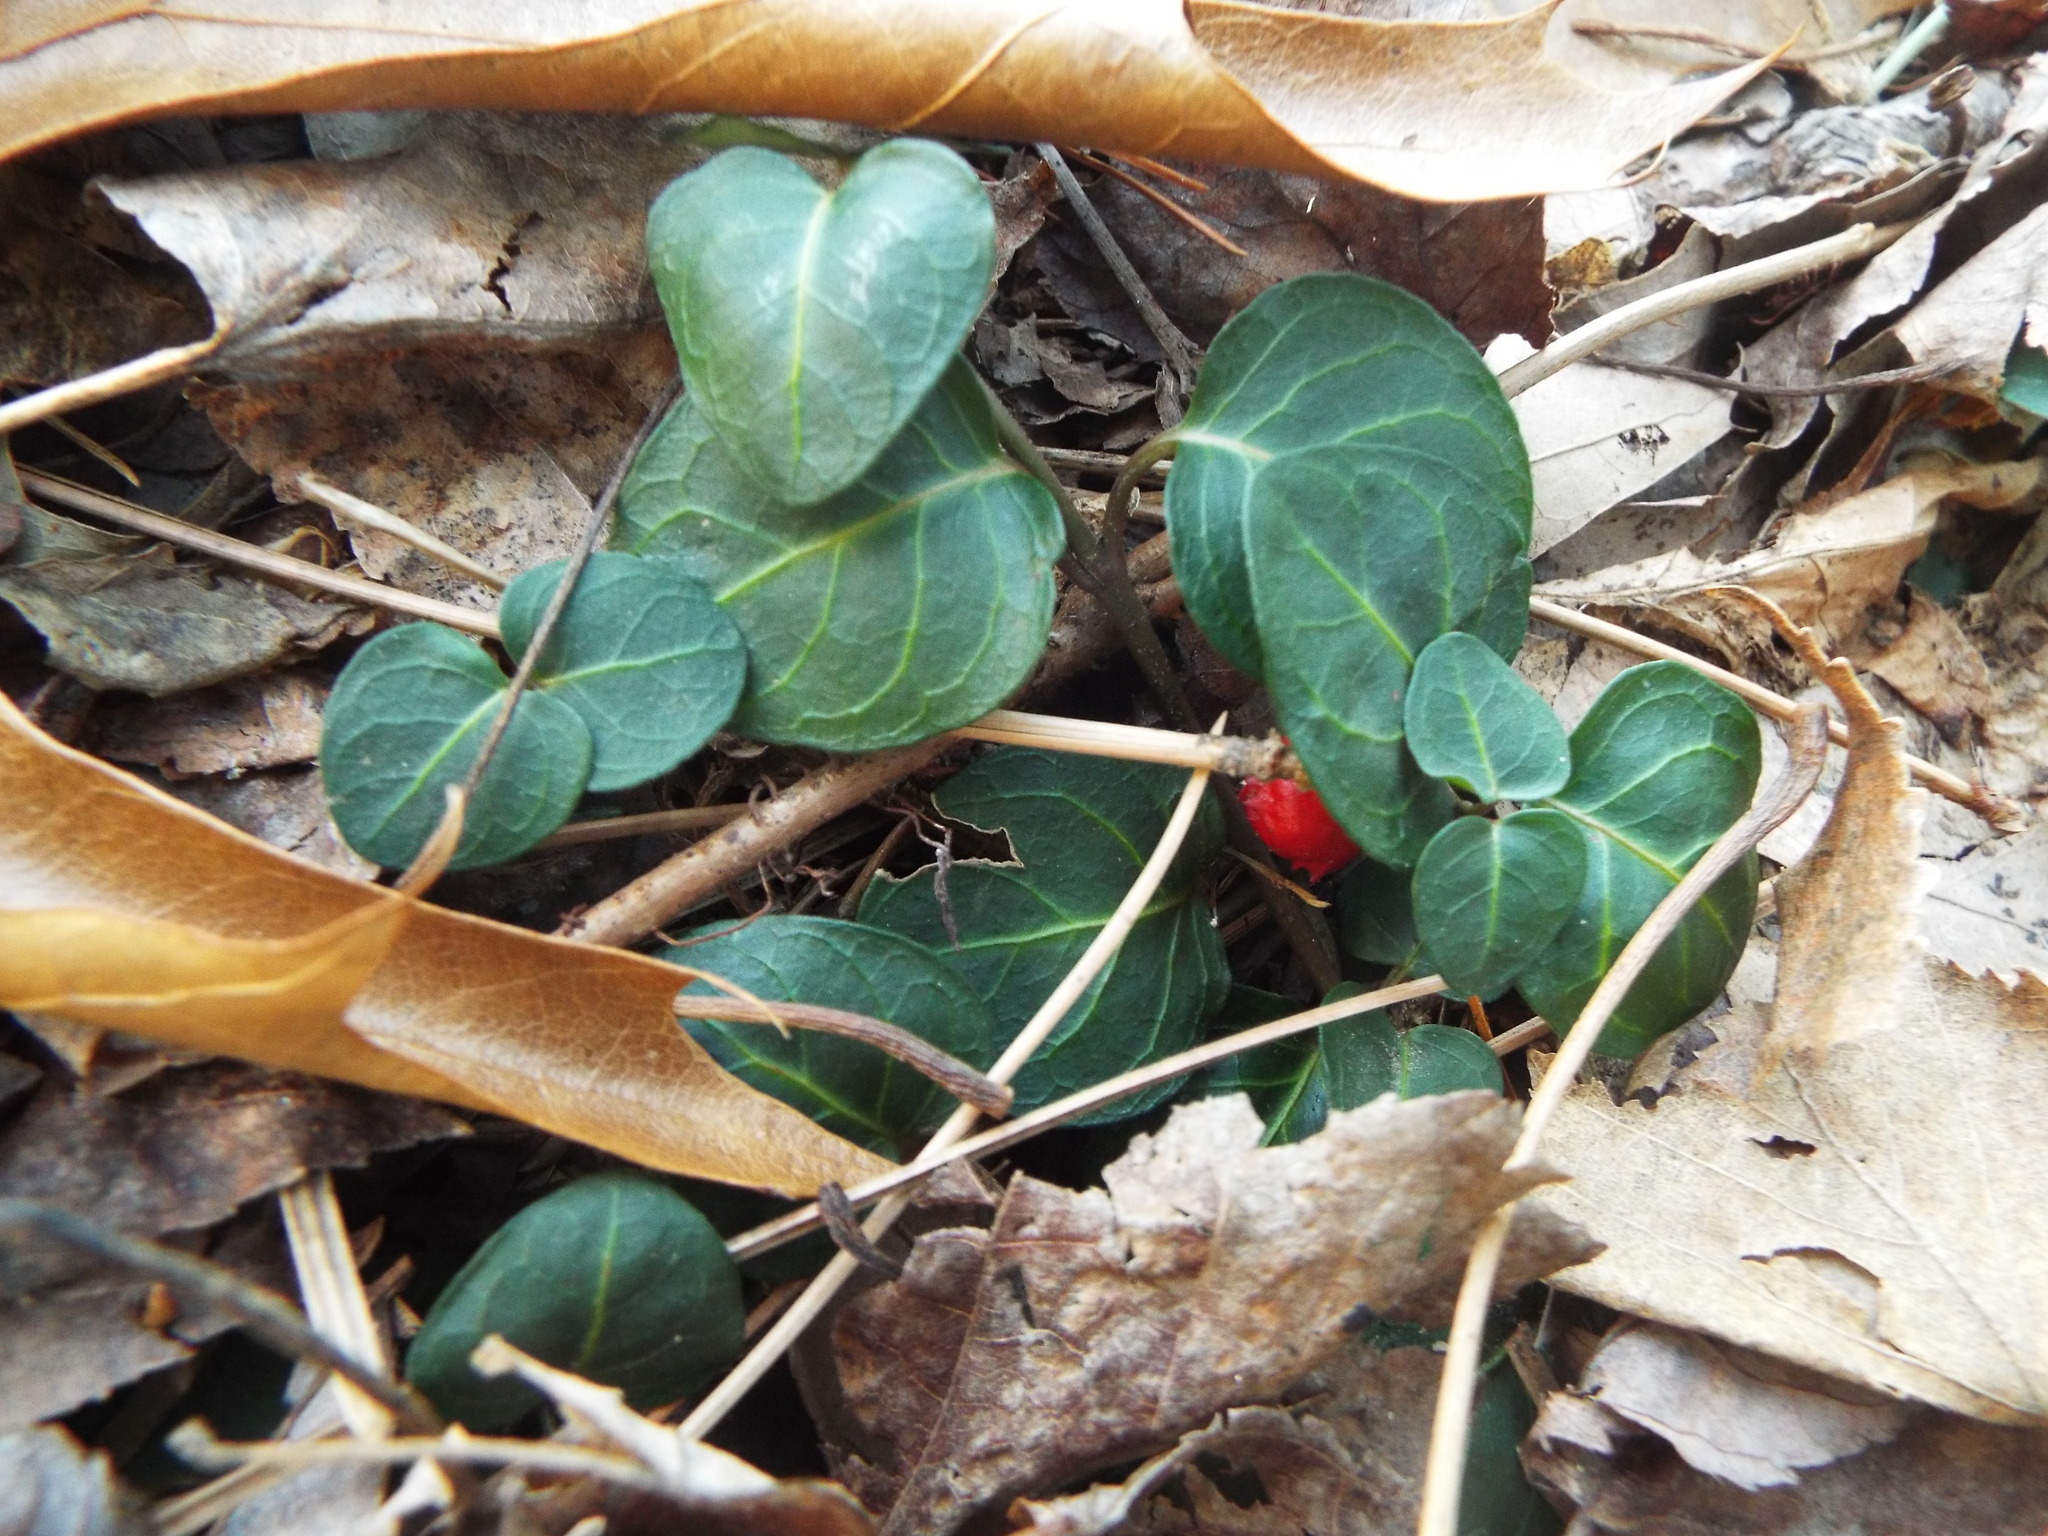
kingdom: Plantae
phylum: Tracheophyta
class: Magnoliopsida
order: Gentianales
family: Rubiaceae
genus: Mitchella
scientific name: Mitchella repens
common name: Partridge-berry
